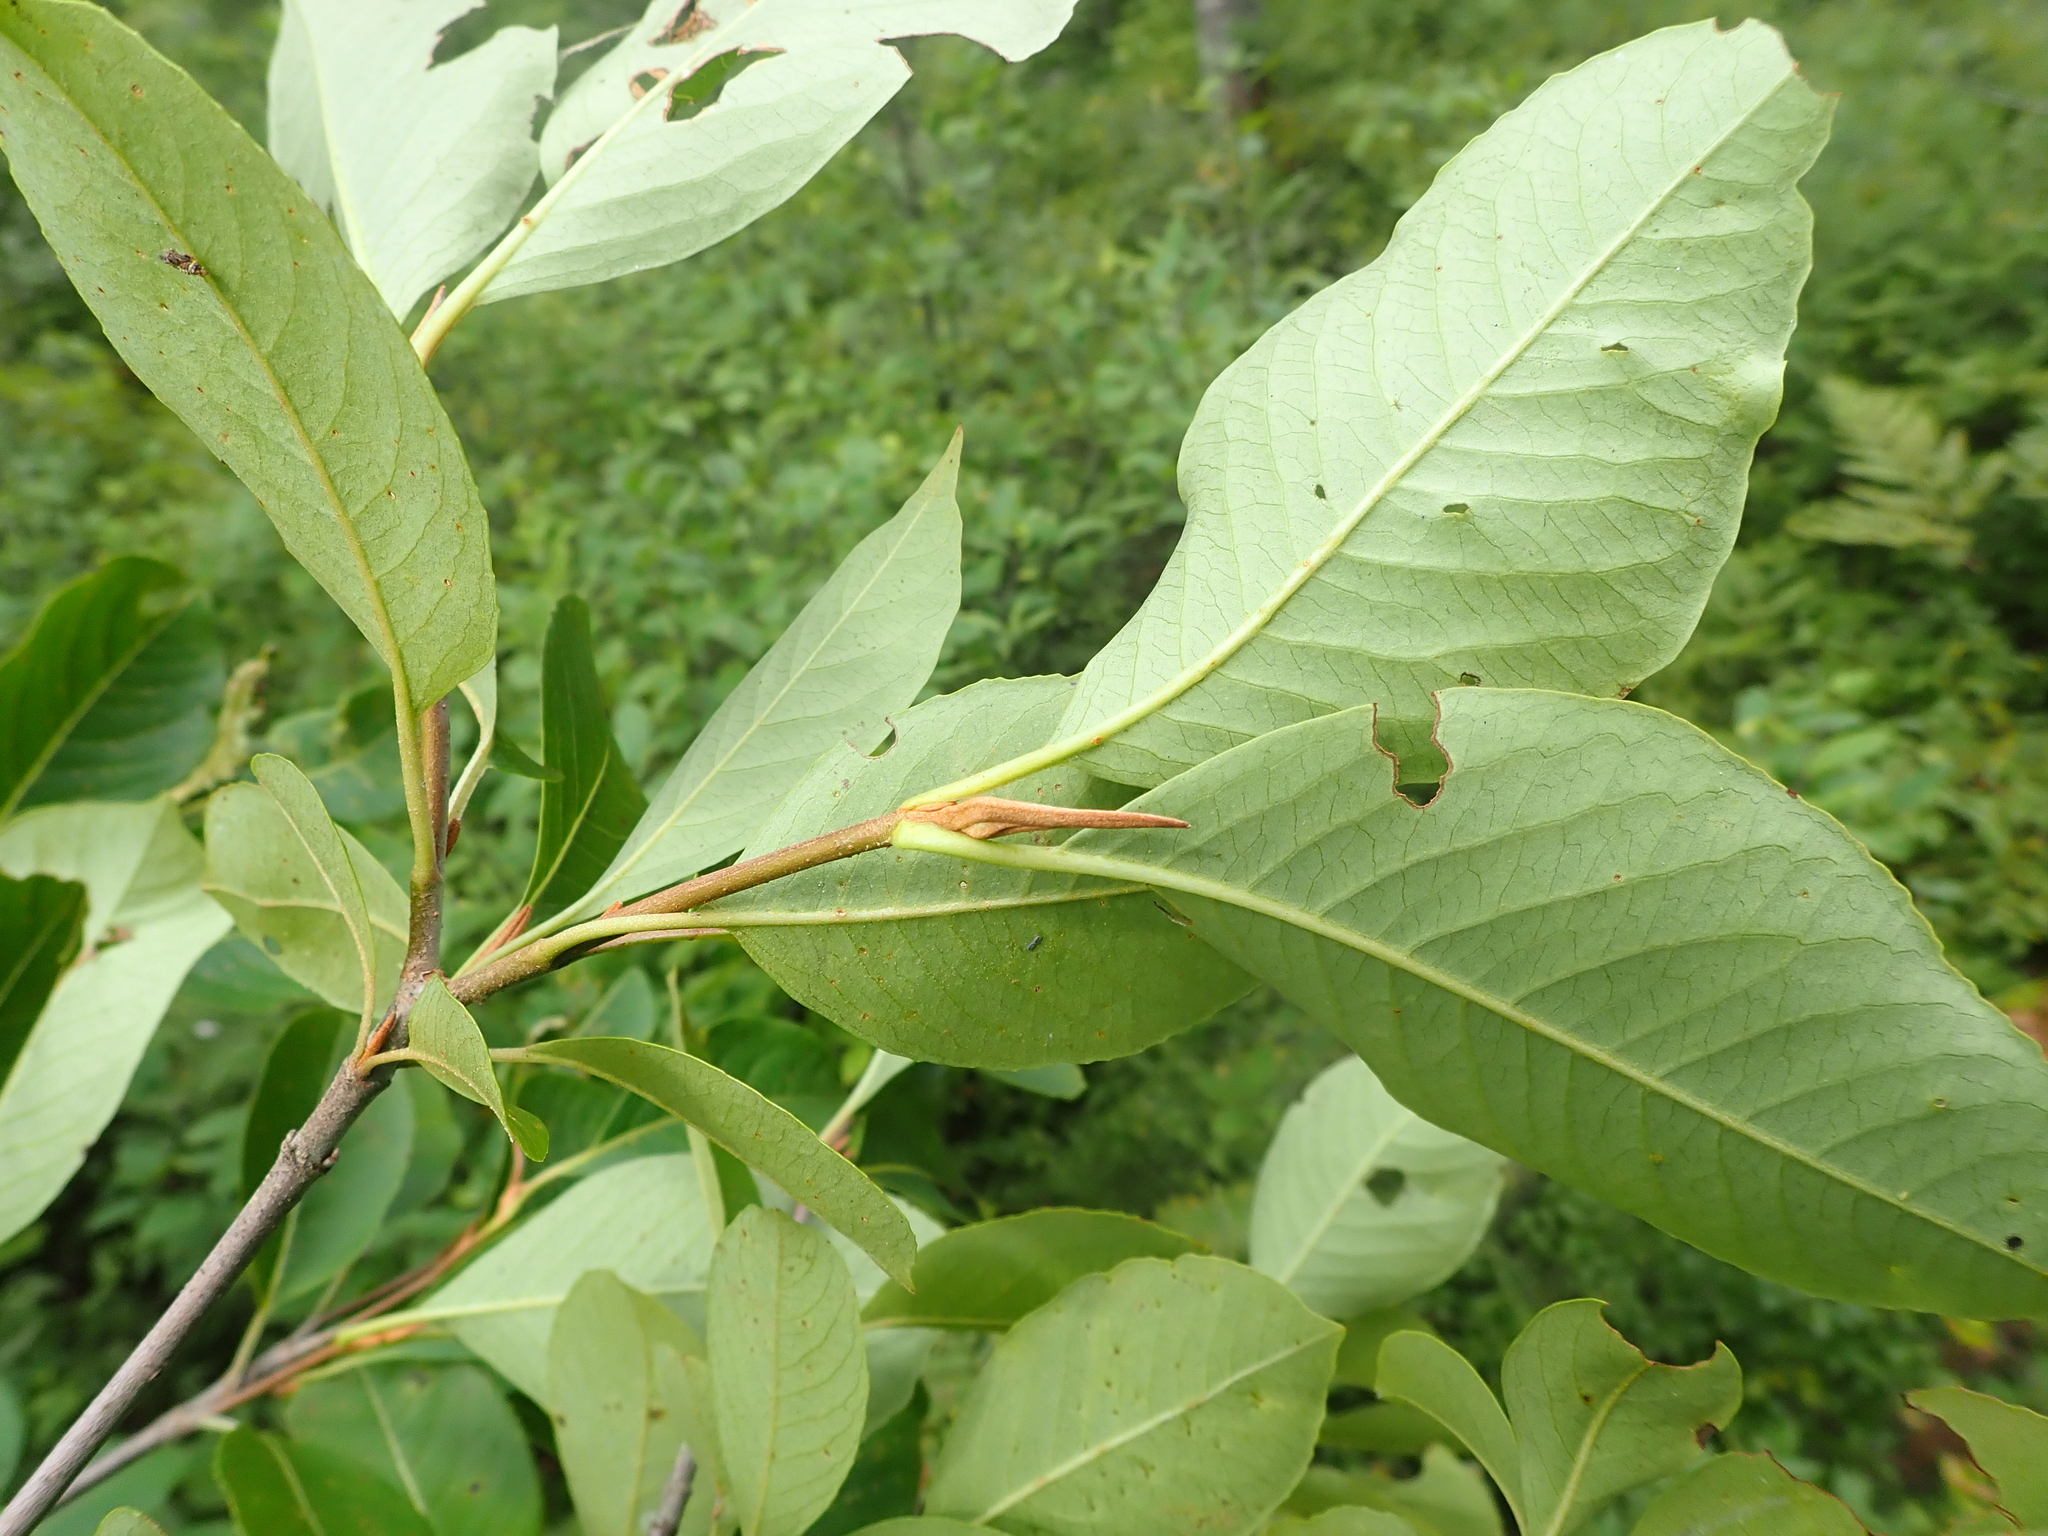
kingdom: Plantae
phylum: Tracheophyta
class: Magnoliopsida
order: Dipsacales
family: Viburnaceae
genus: Viburnum
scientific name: Viburnum cassinoides
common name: Swamp haw
